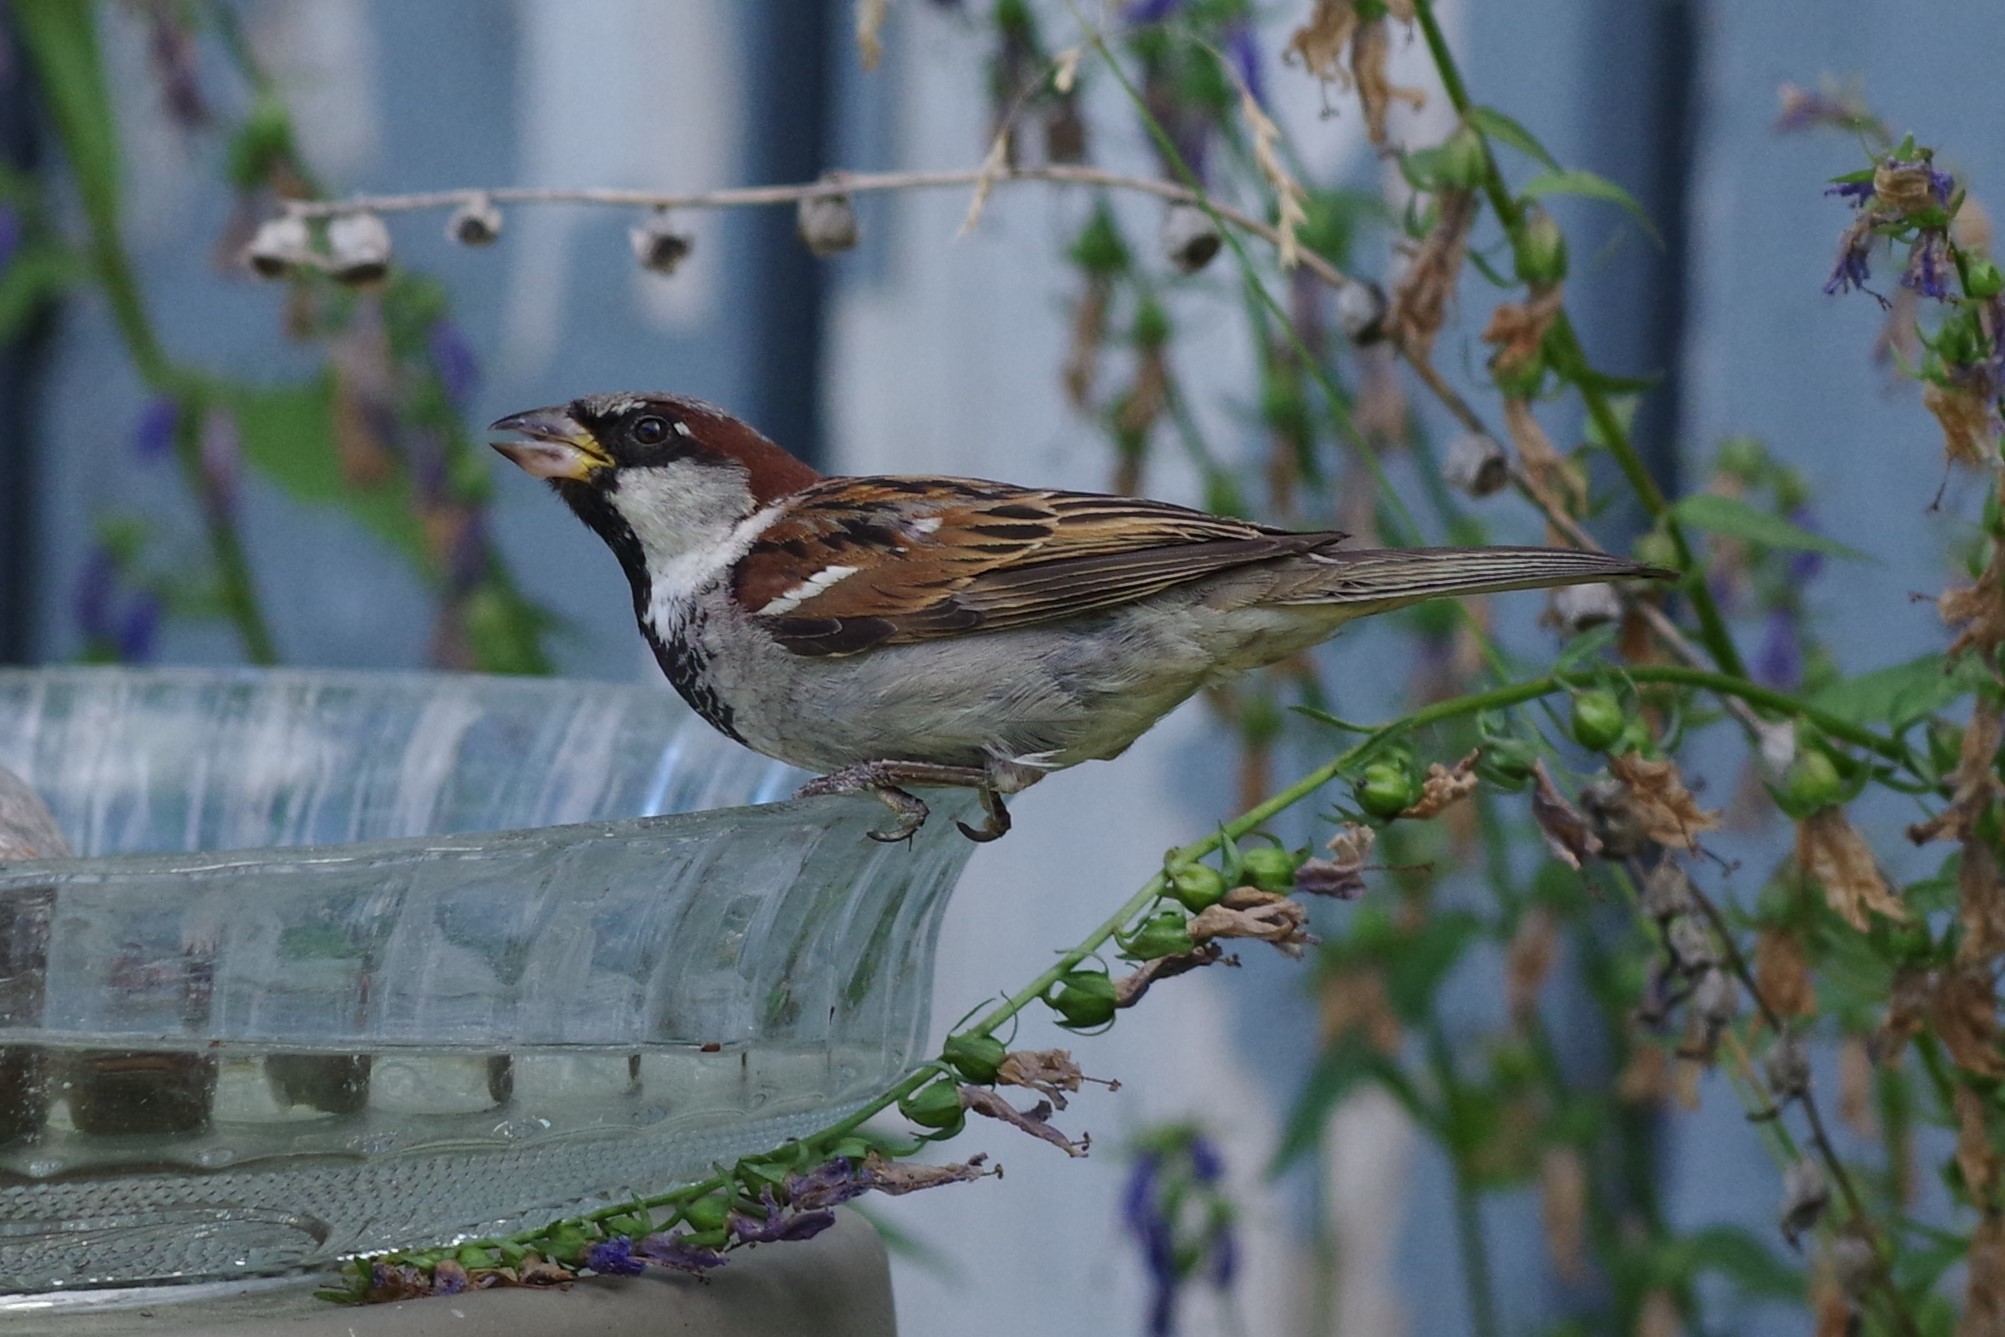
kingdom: Animalia
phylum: Chordata
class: Aves
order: Passeriformes
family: Passeridae
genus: Passer
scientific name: Passer domesticus
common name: House sparrow
